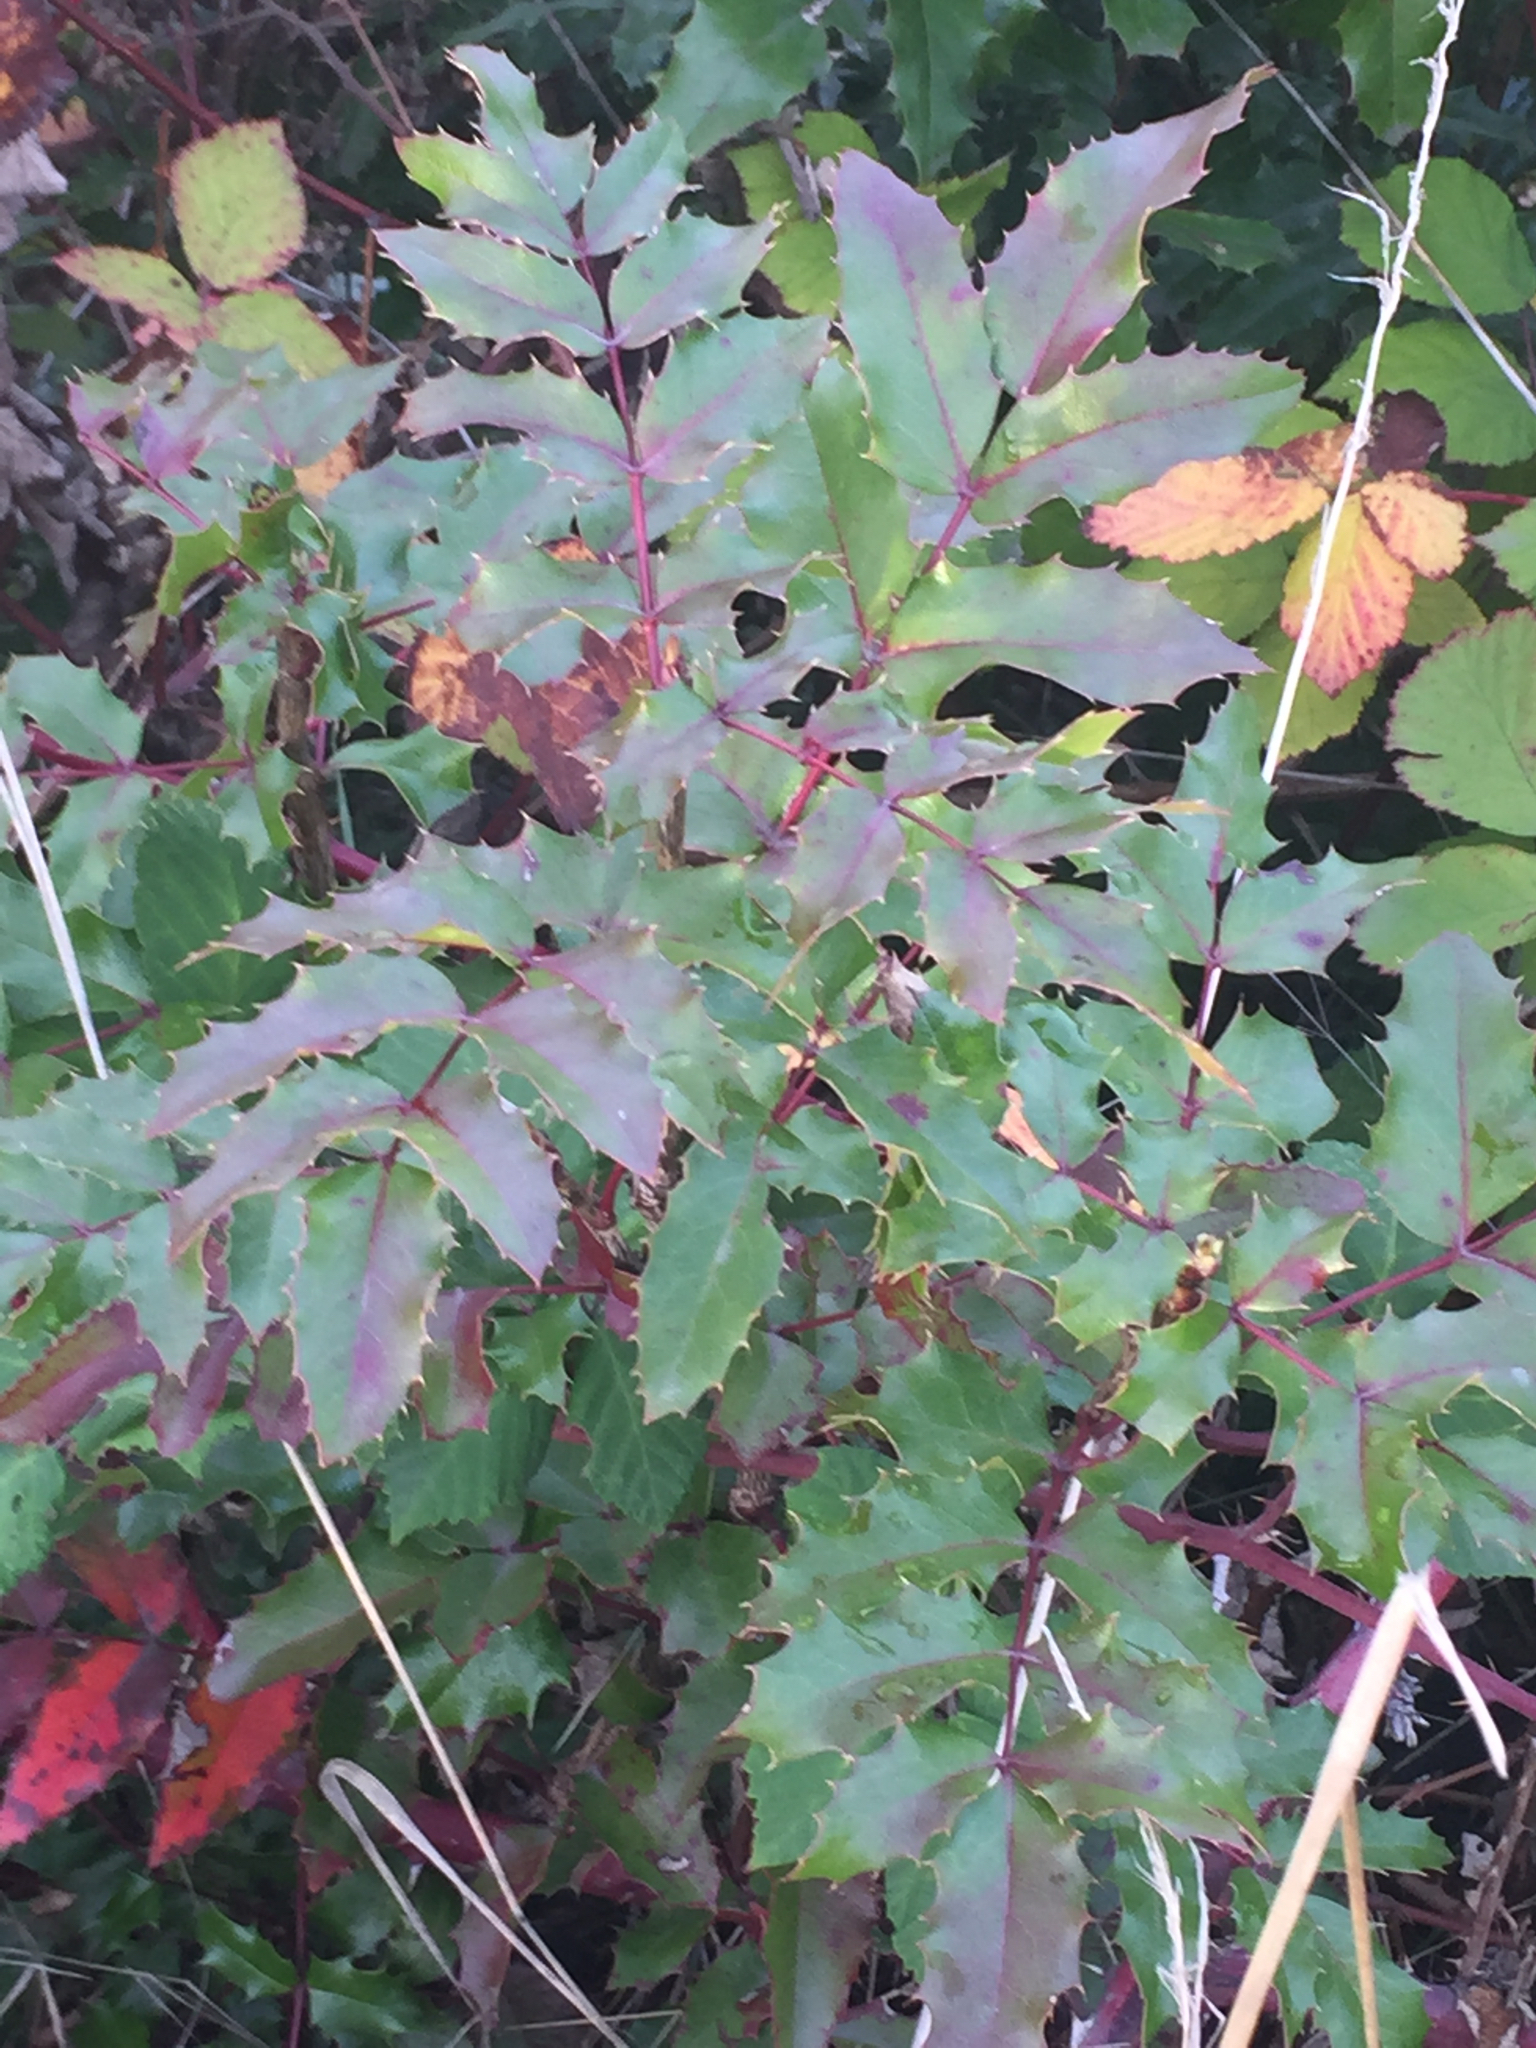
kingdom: Plantae
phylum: Tracheophyta
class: Magnoliopsida
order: Ranunculales
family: Berberidaceae
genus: Mahonia
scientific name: Mahonia aquifolium
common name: Oregon-grape
